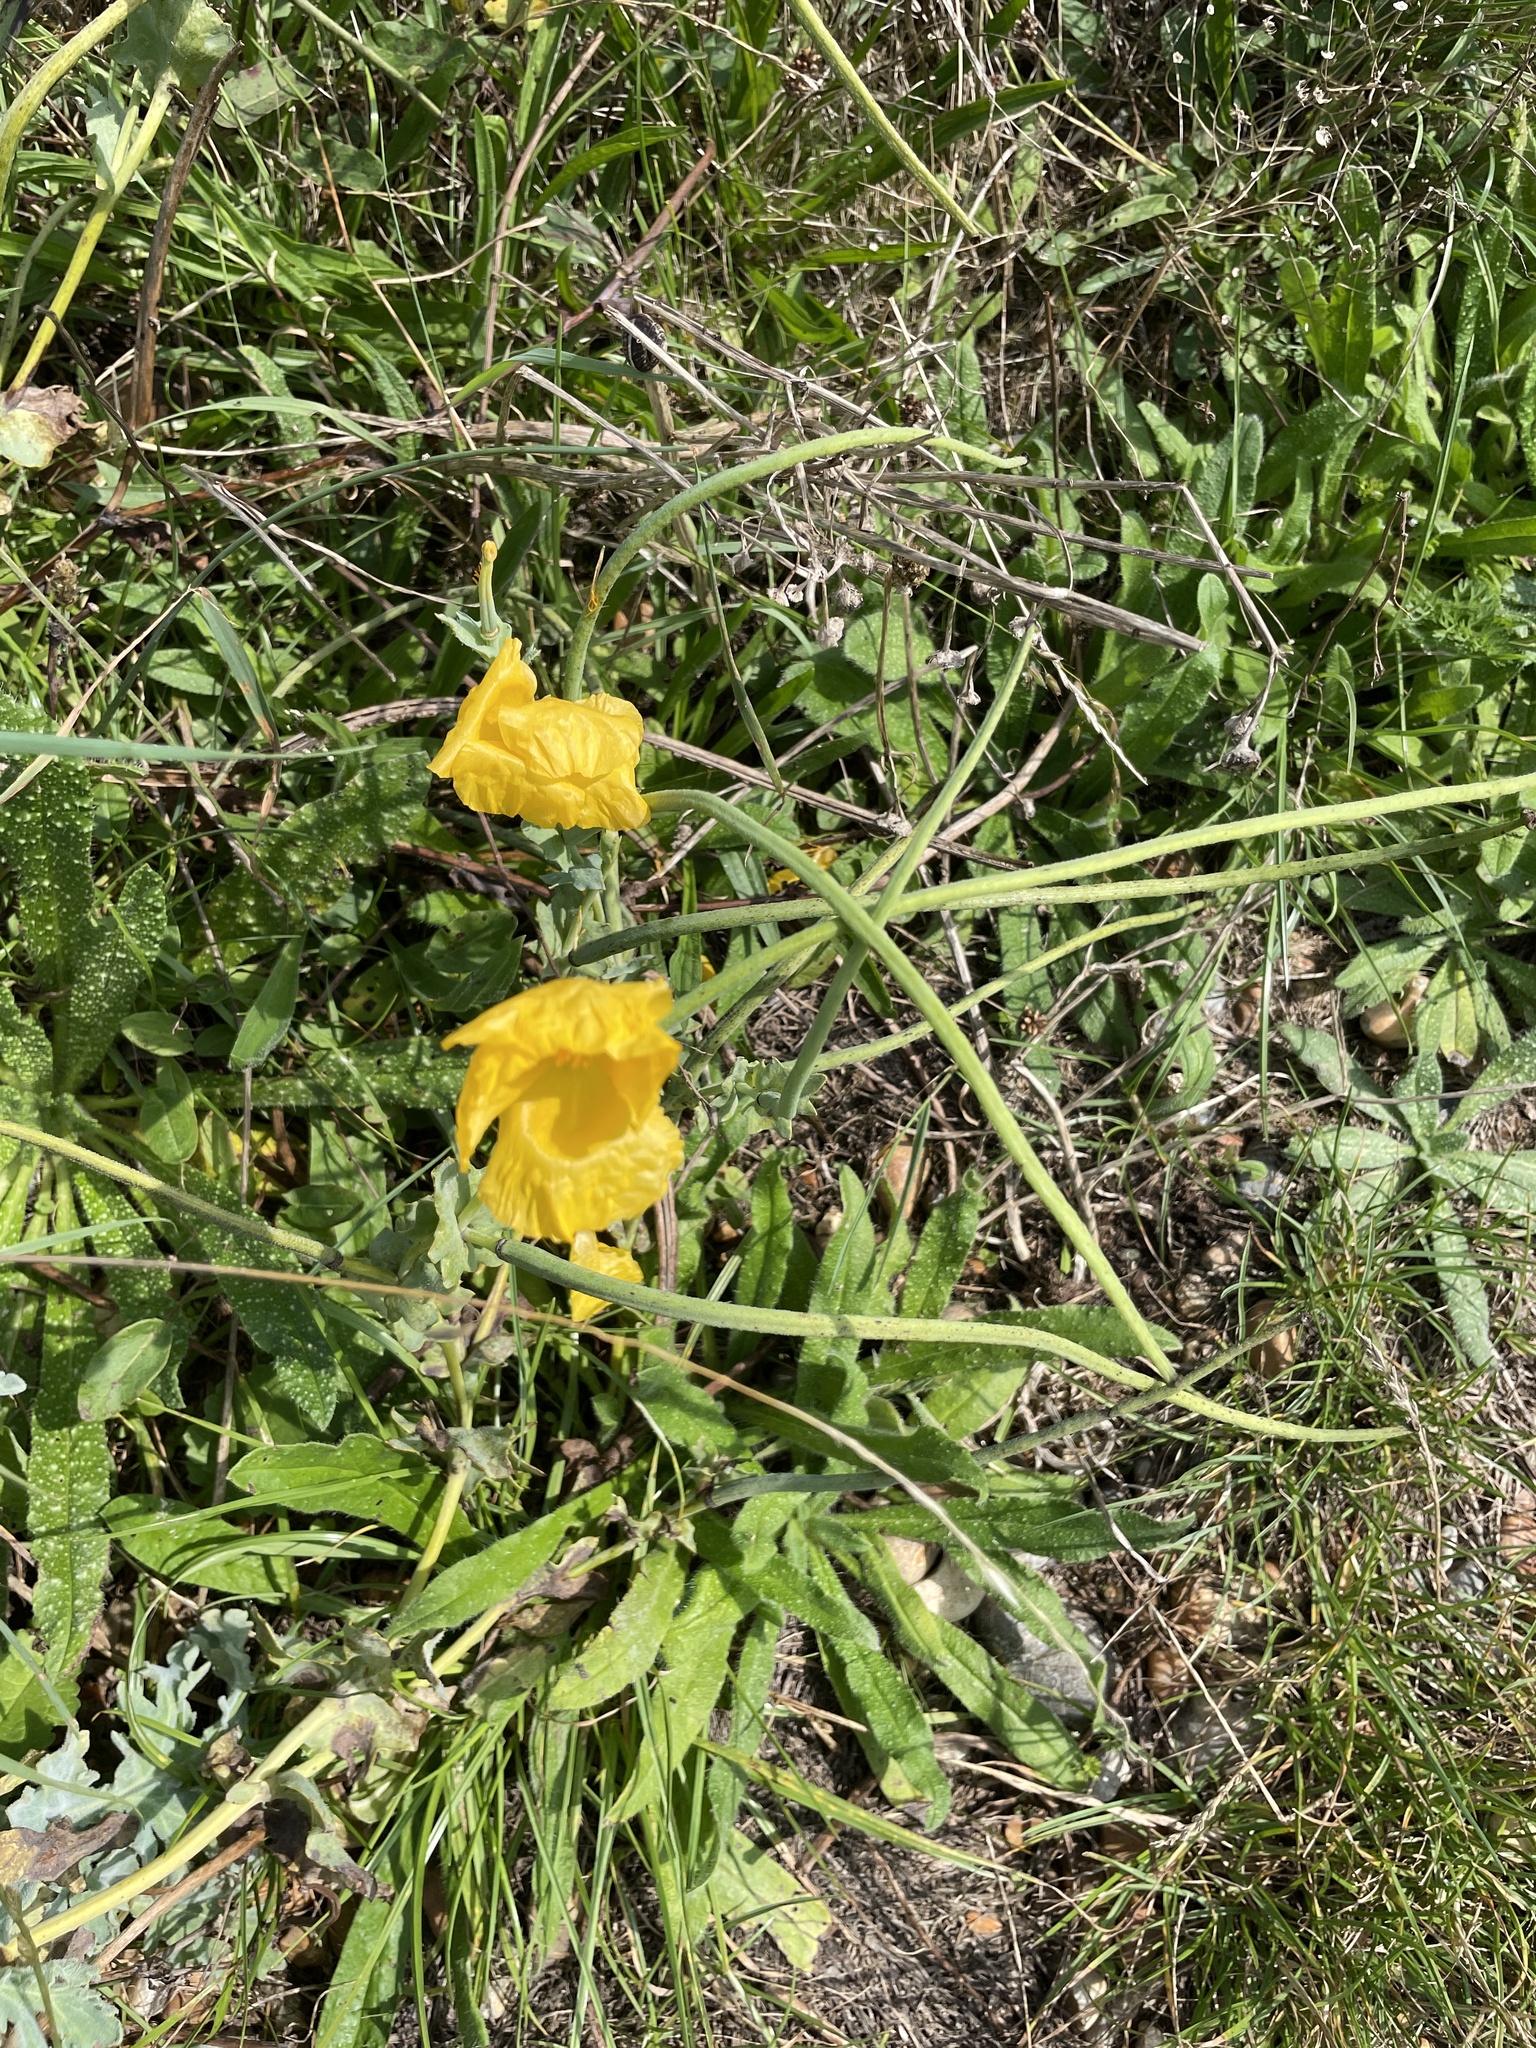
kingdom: Plantae
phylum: Tracheophyta
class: Magnoliopsida
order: Ranunculales
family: Papaveraceae
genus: Glaucium
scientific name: Glaucium flavum
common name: Yellow horned-poppy
